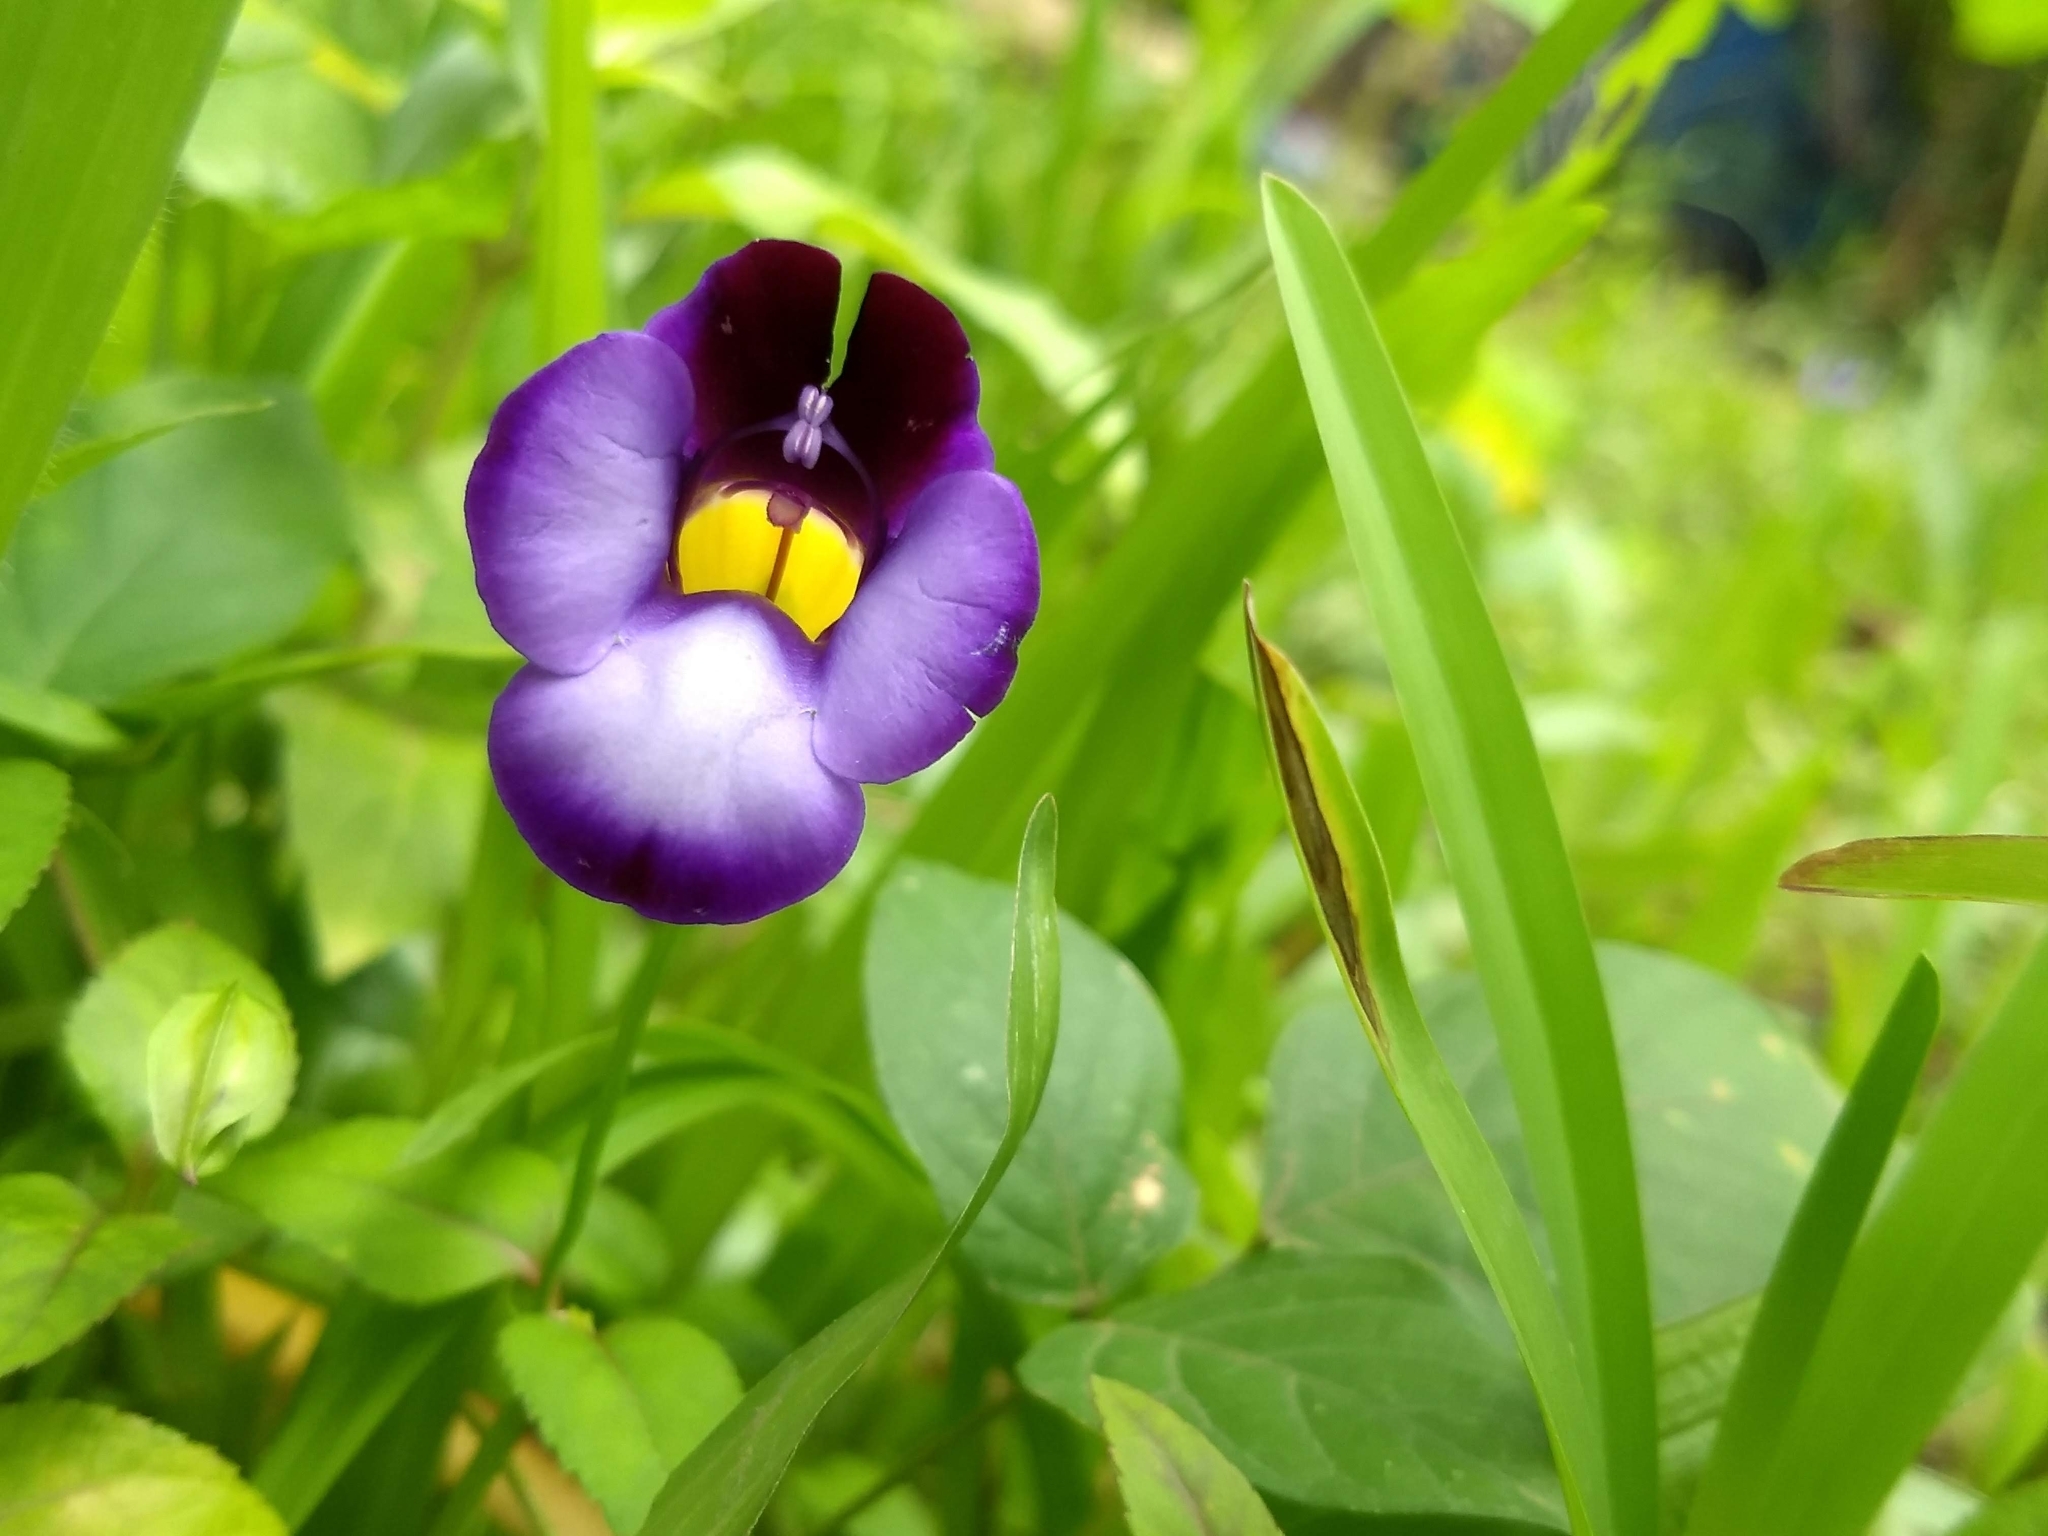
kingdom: Plantae
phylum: Tracheophyta
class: Magnoliopsida
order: Lamiales
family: Linderniaceae
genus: Torenia
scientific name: Torenia leucosiphon
